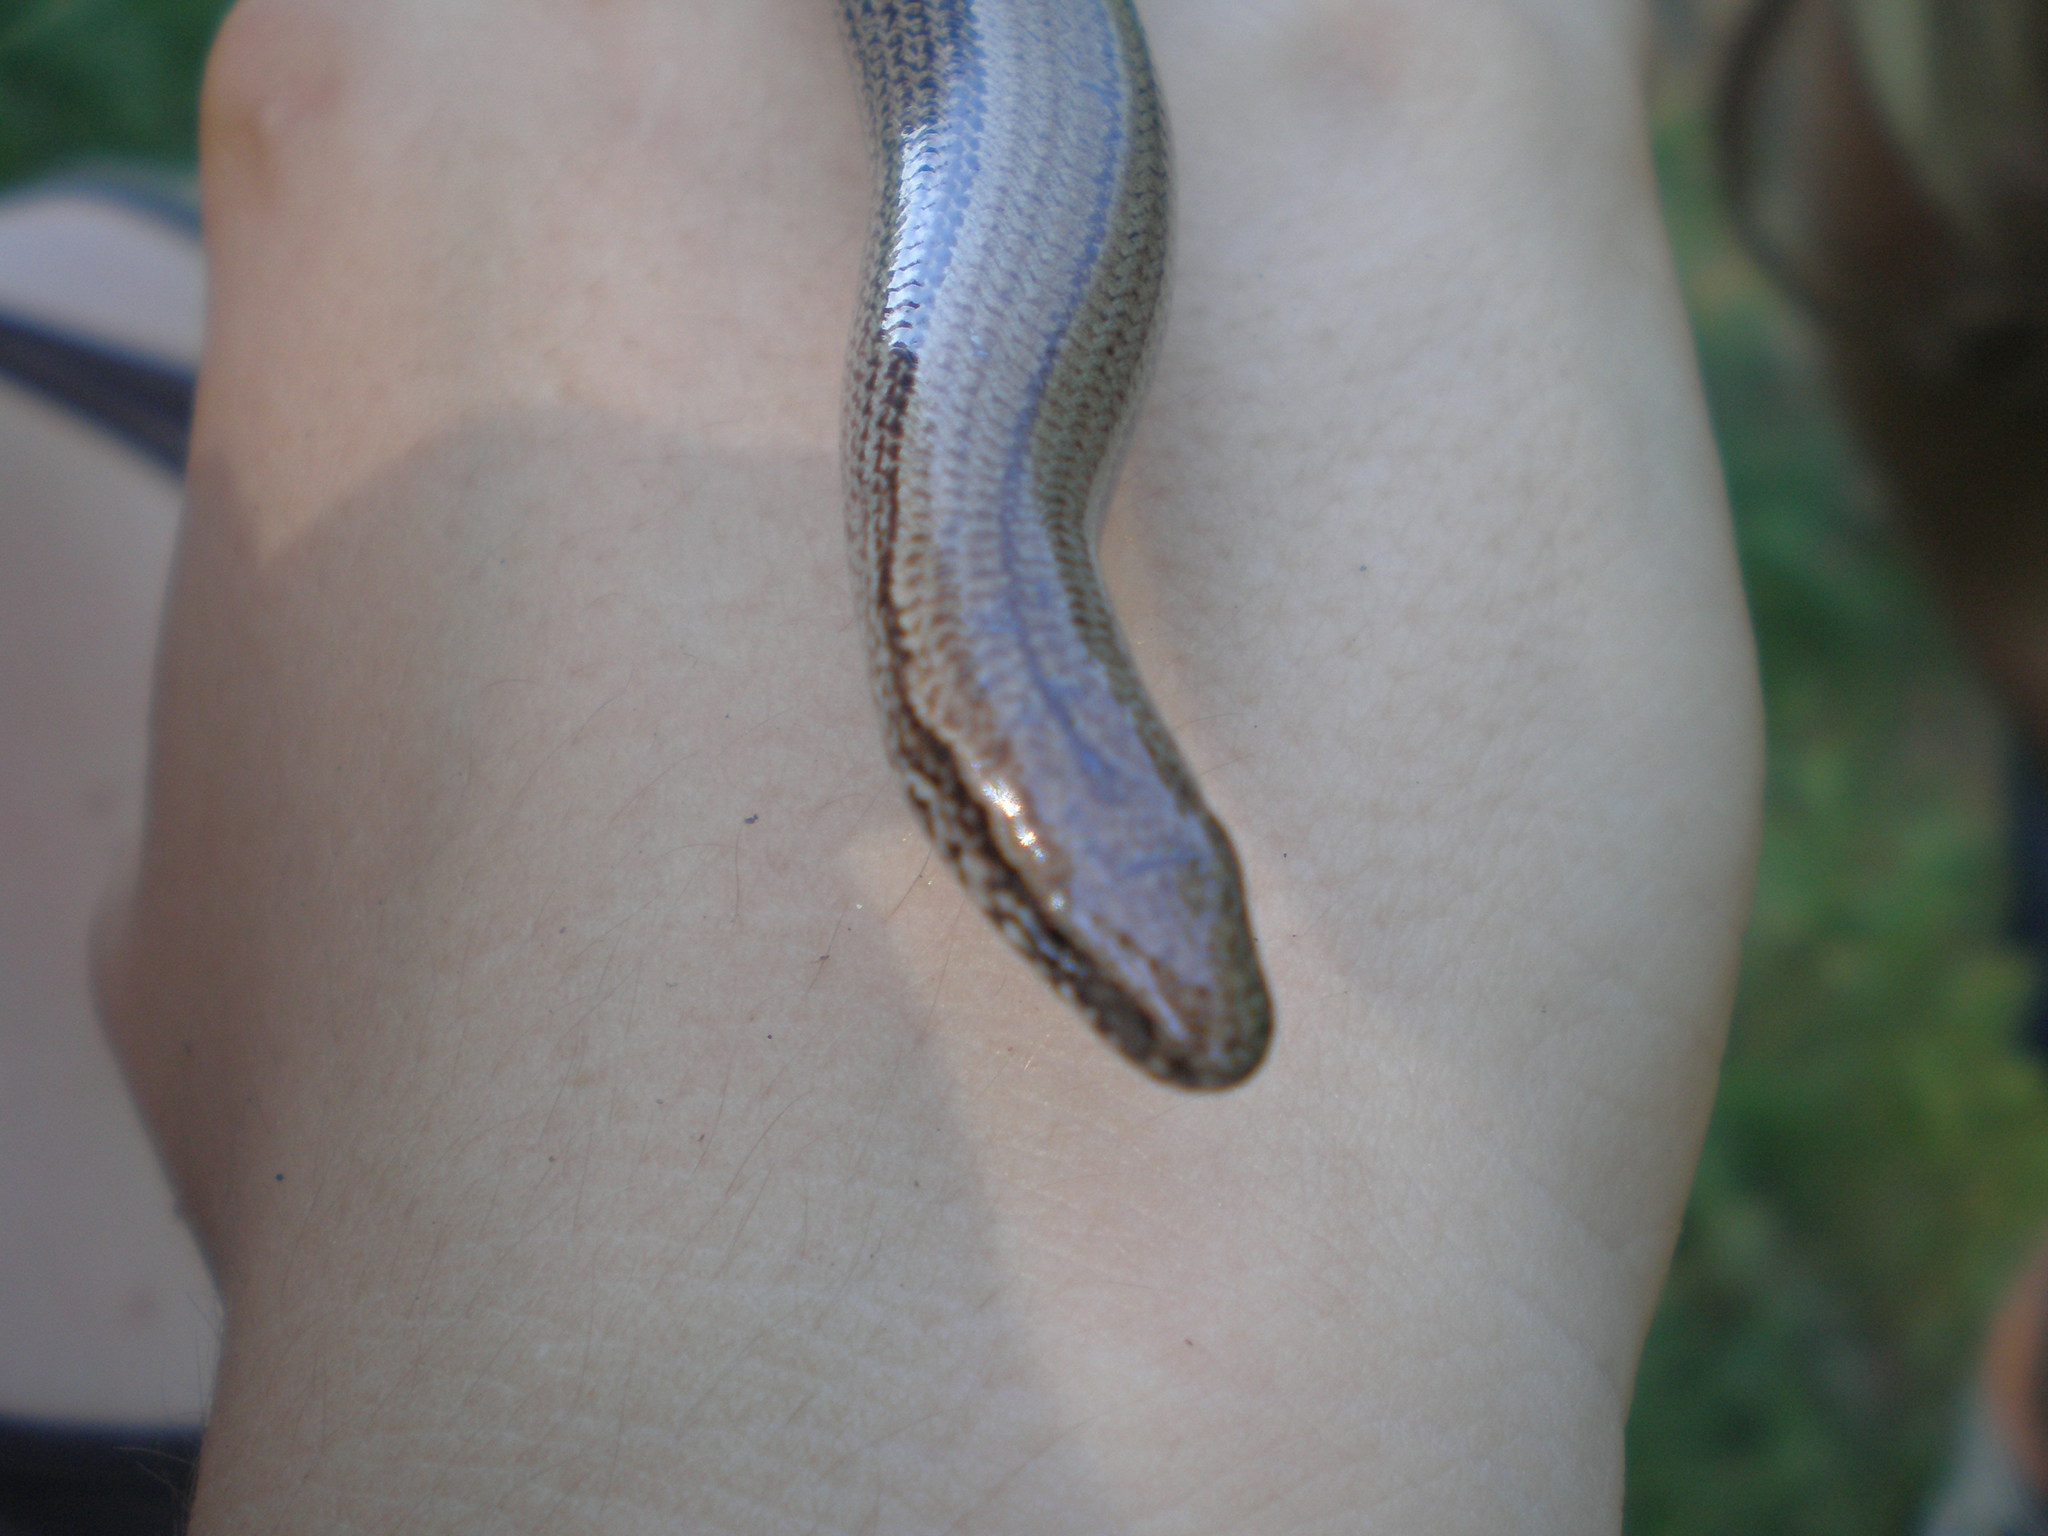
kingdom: Animalia
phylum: Chordata
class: Squamata
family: Anguidae
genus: Anguis
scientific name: Anguis fragilis
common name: Slow worm
